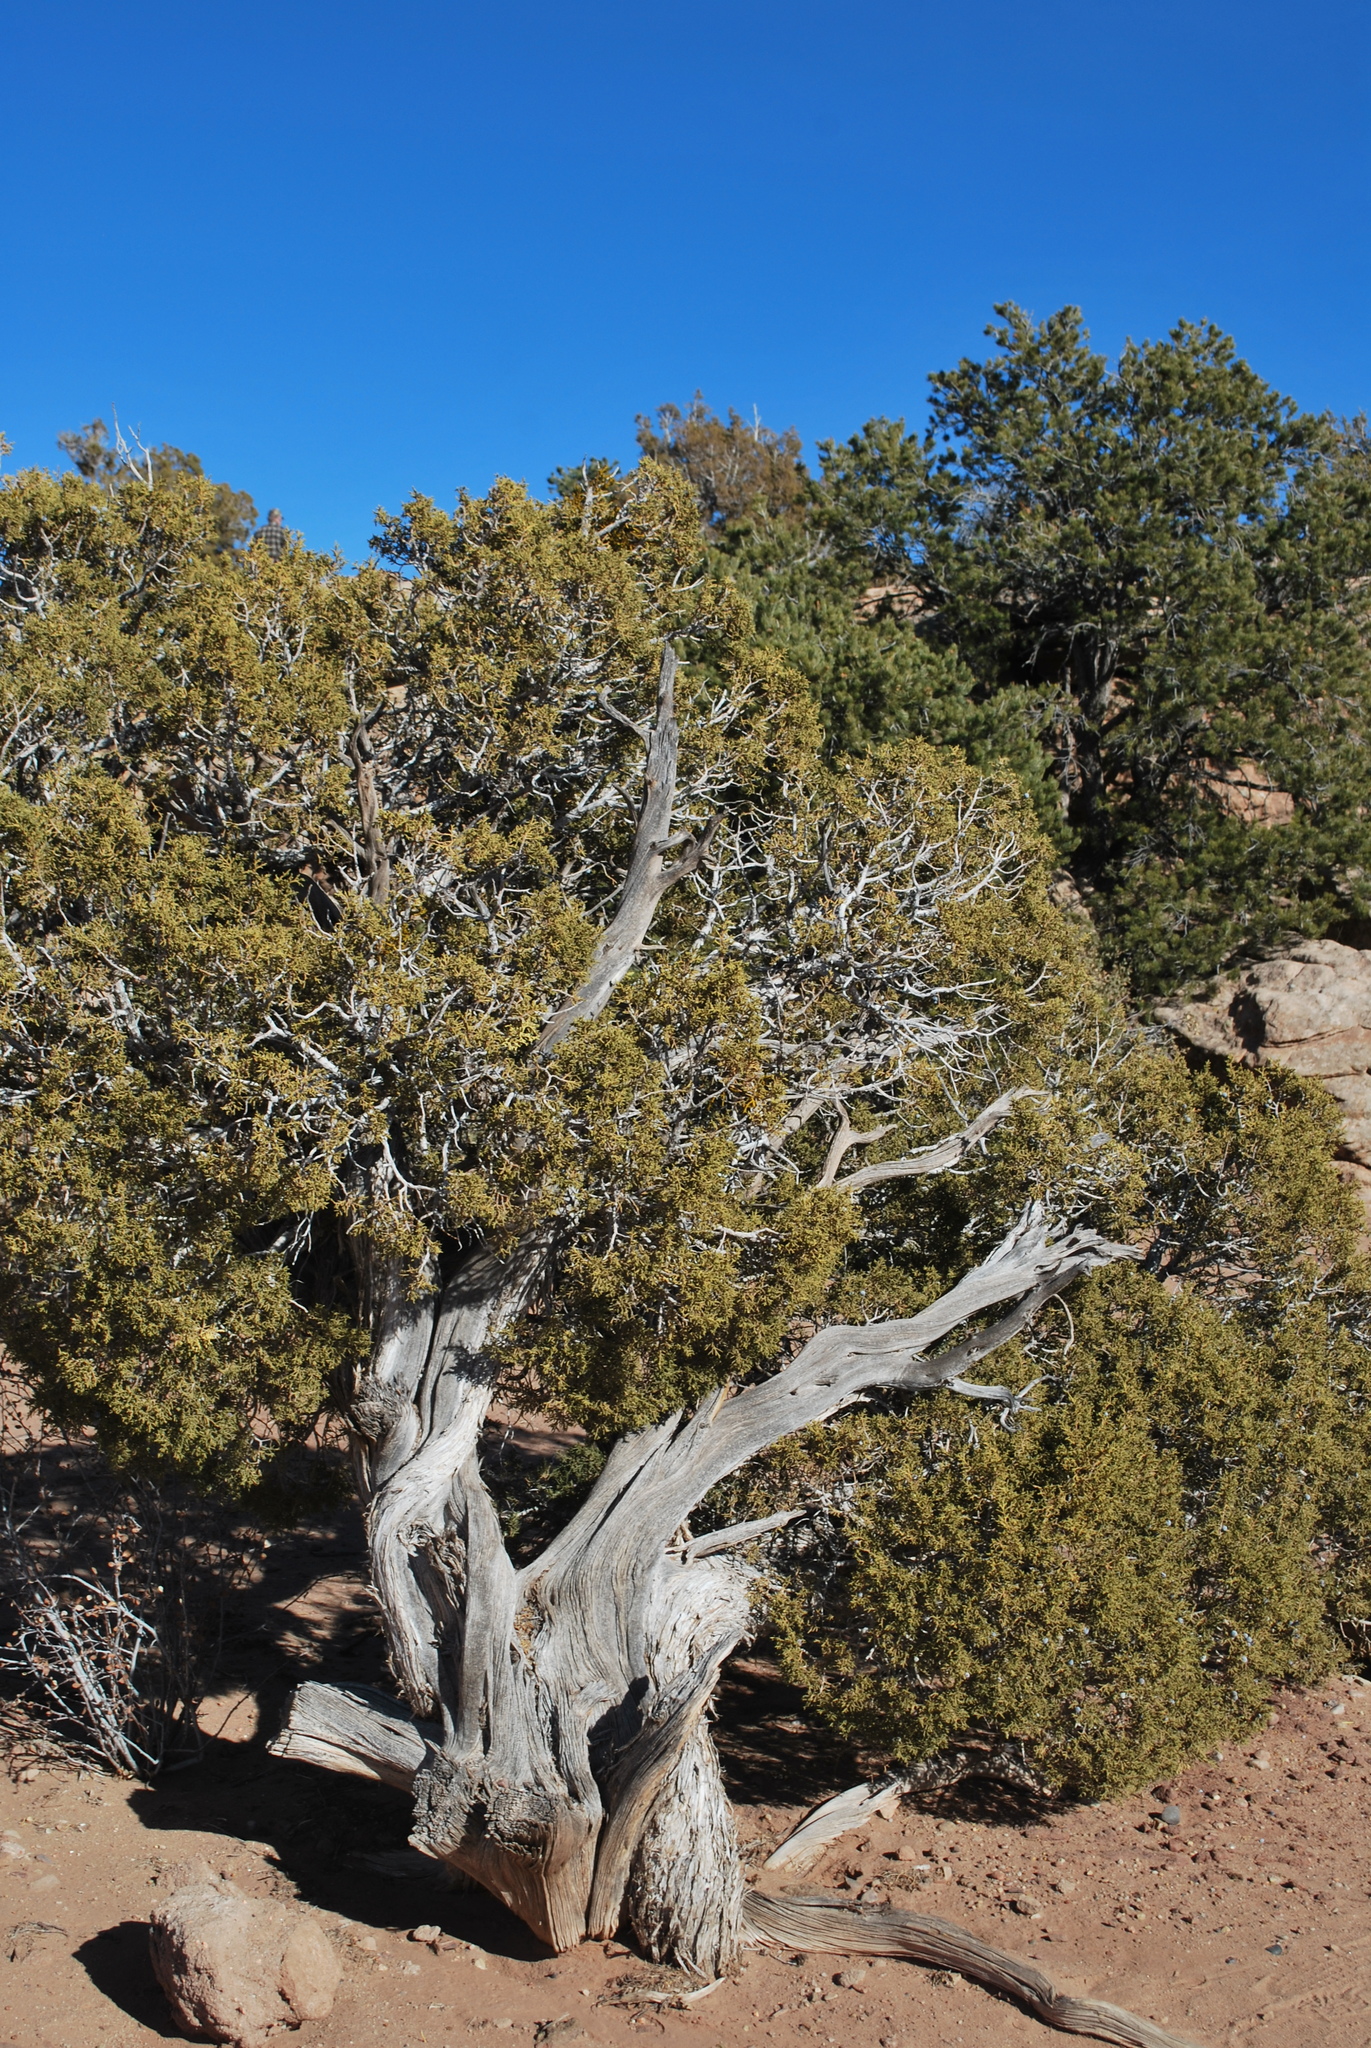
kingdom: Plantae
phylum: Tracheophyta
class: Pinopsida
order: Pinales
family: Cupressaceae
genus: Juniperus
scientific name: Juniperus osteosperma
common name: Utah juniper
